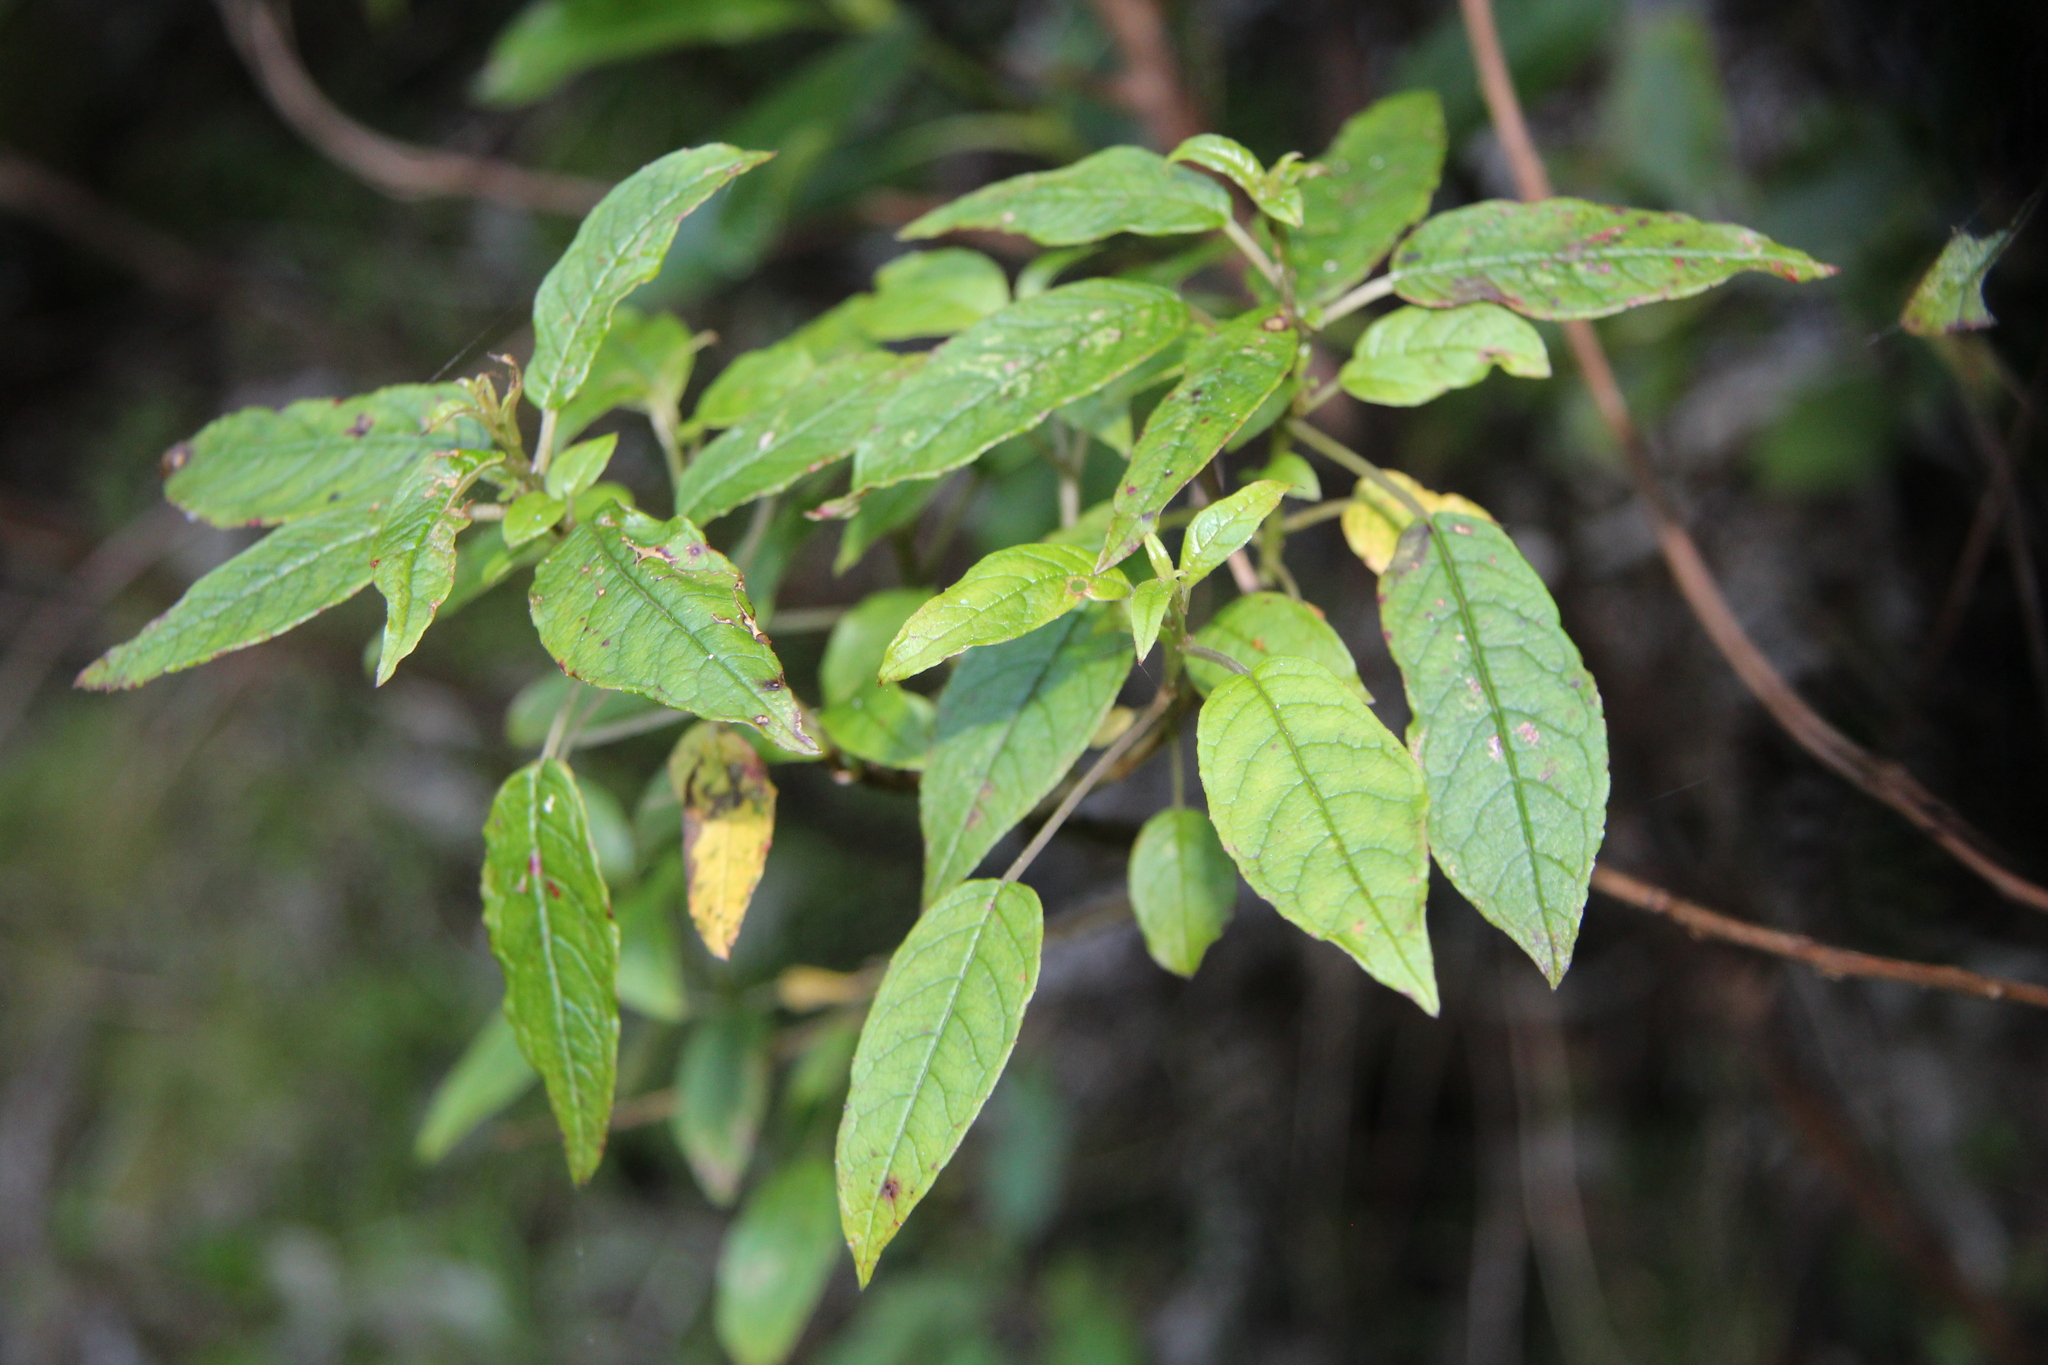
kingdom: Plantae
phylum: Tracheophyta
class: Magnoliopsida
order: Myrtales
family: Onagraceae
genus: Fuchsia
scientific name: Fuchsia excorticata
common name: Tree fuchsia
